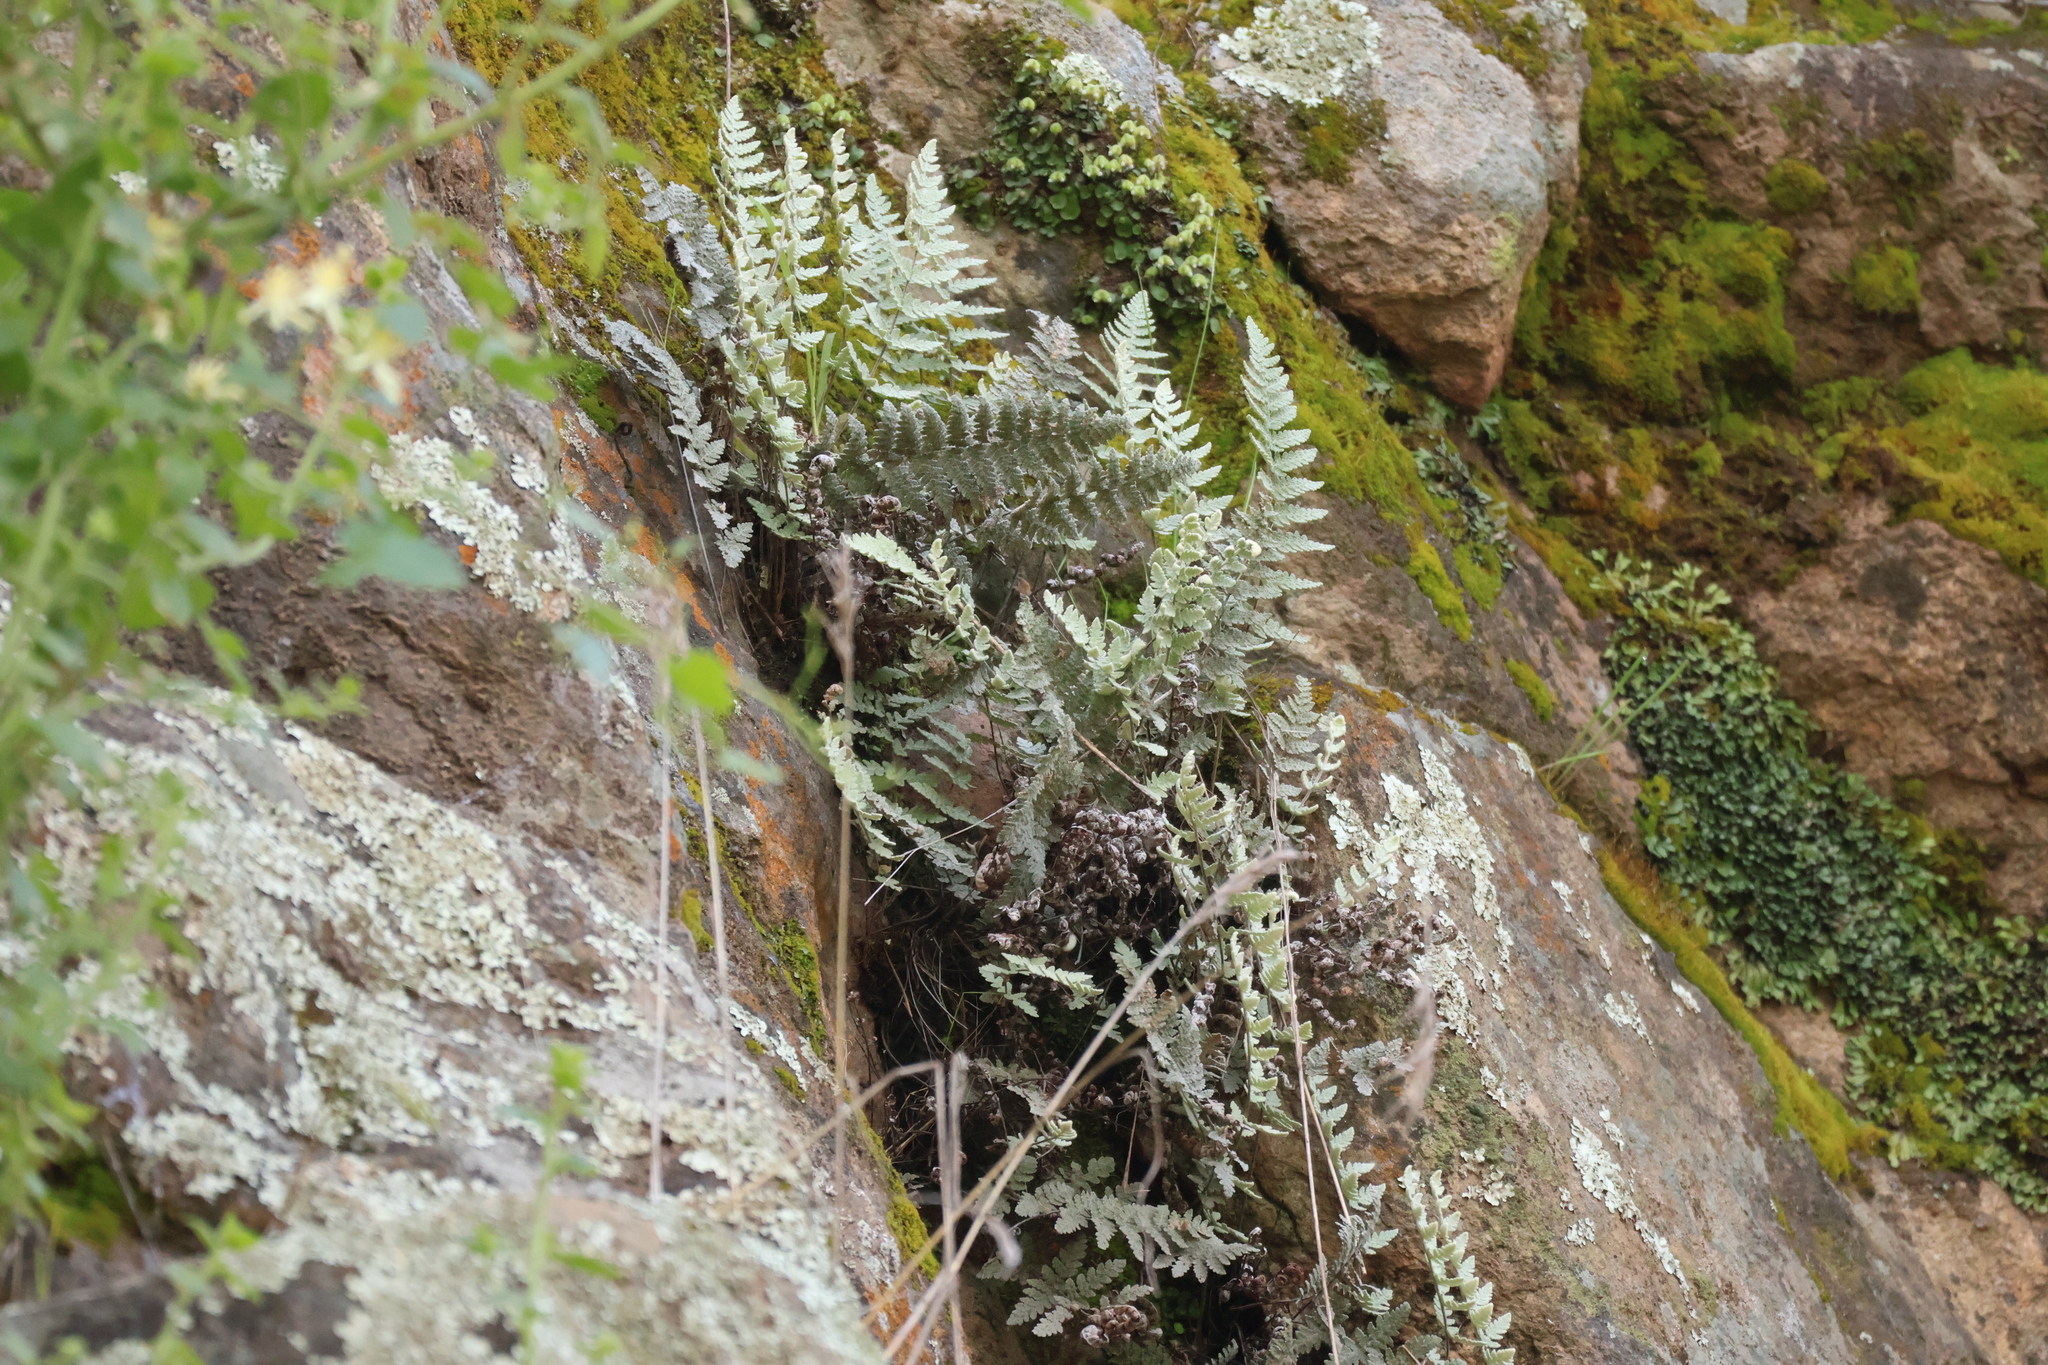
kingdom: Plantae
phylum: Tracheophyta
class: Polypodiopsida
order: Polypodiales
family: Pteridaceae
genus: Myriopteris
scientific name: Myriopteris newberryi
